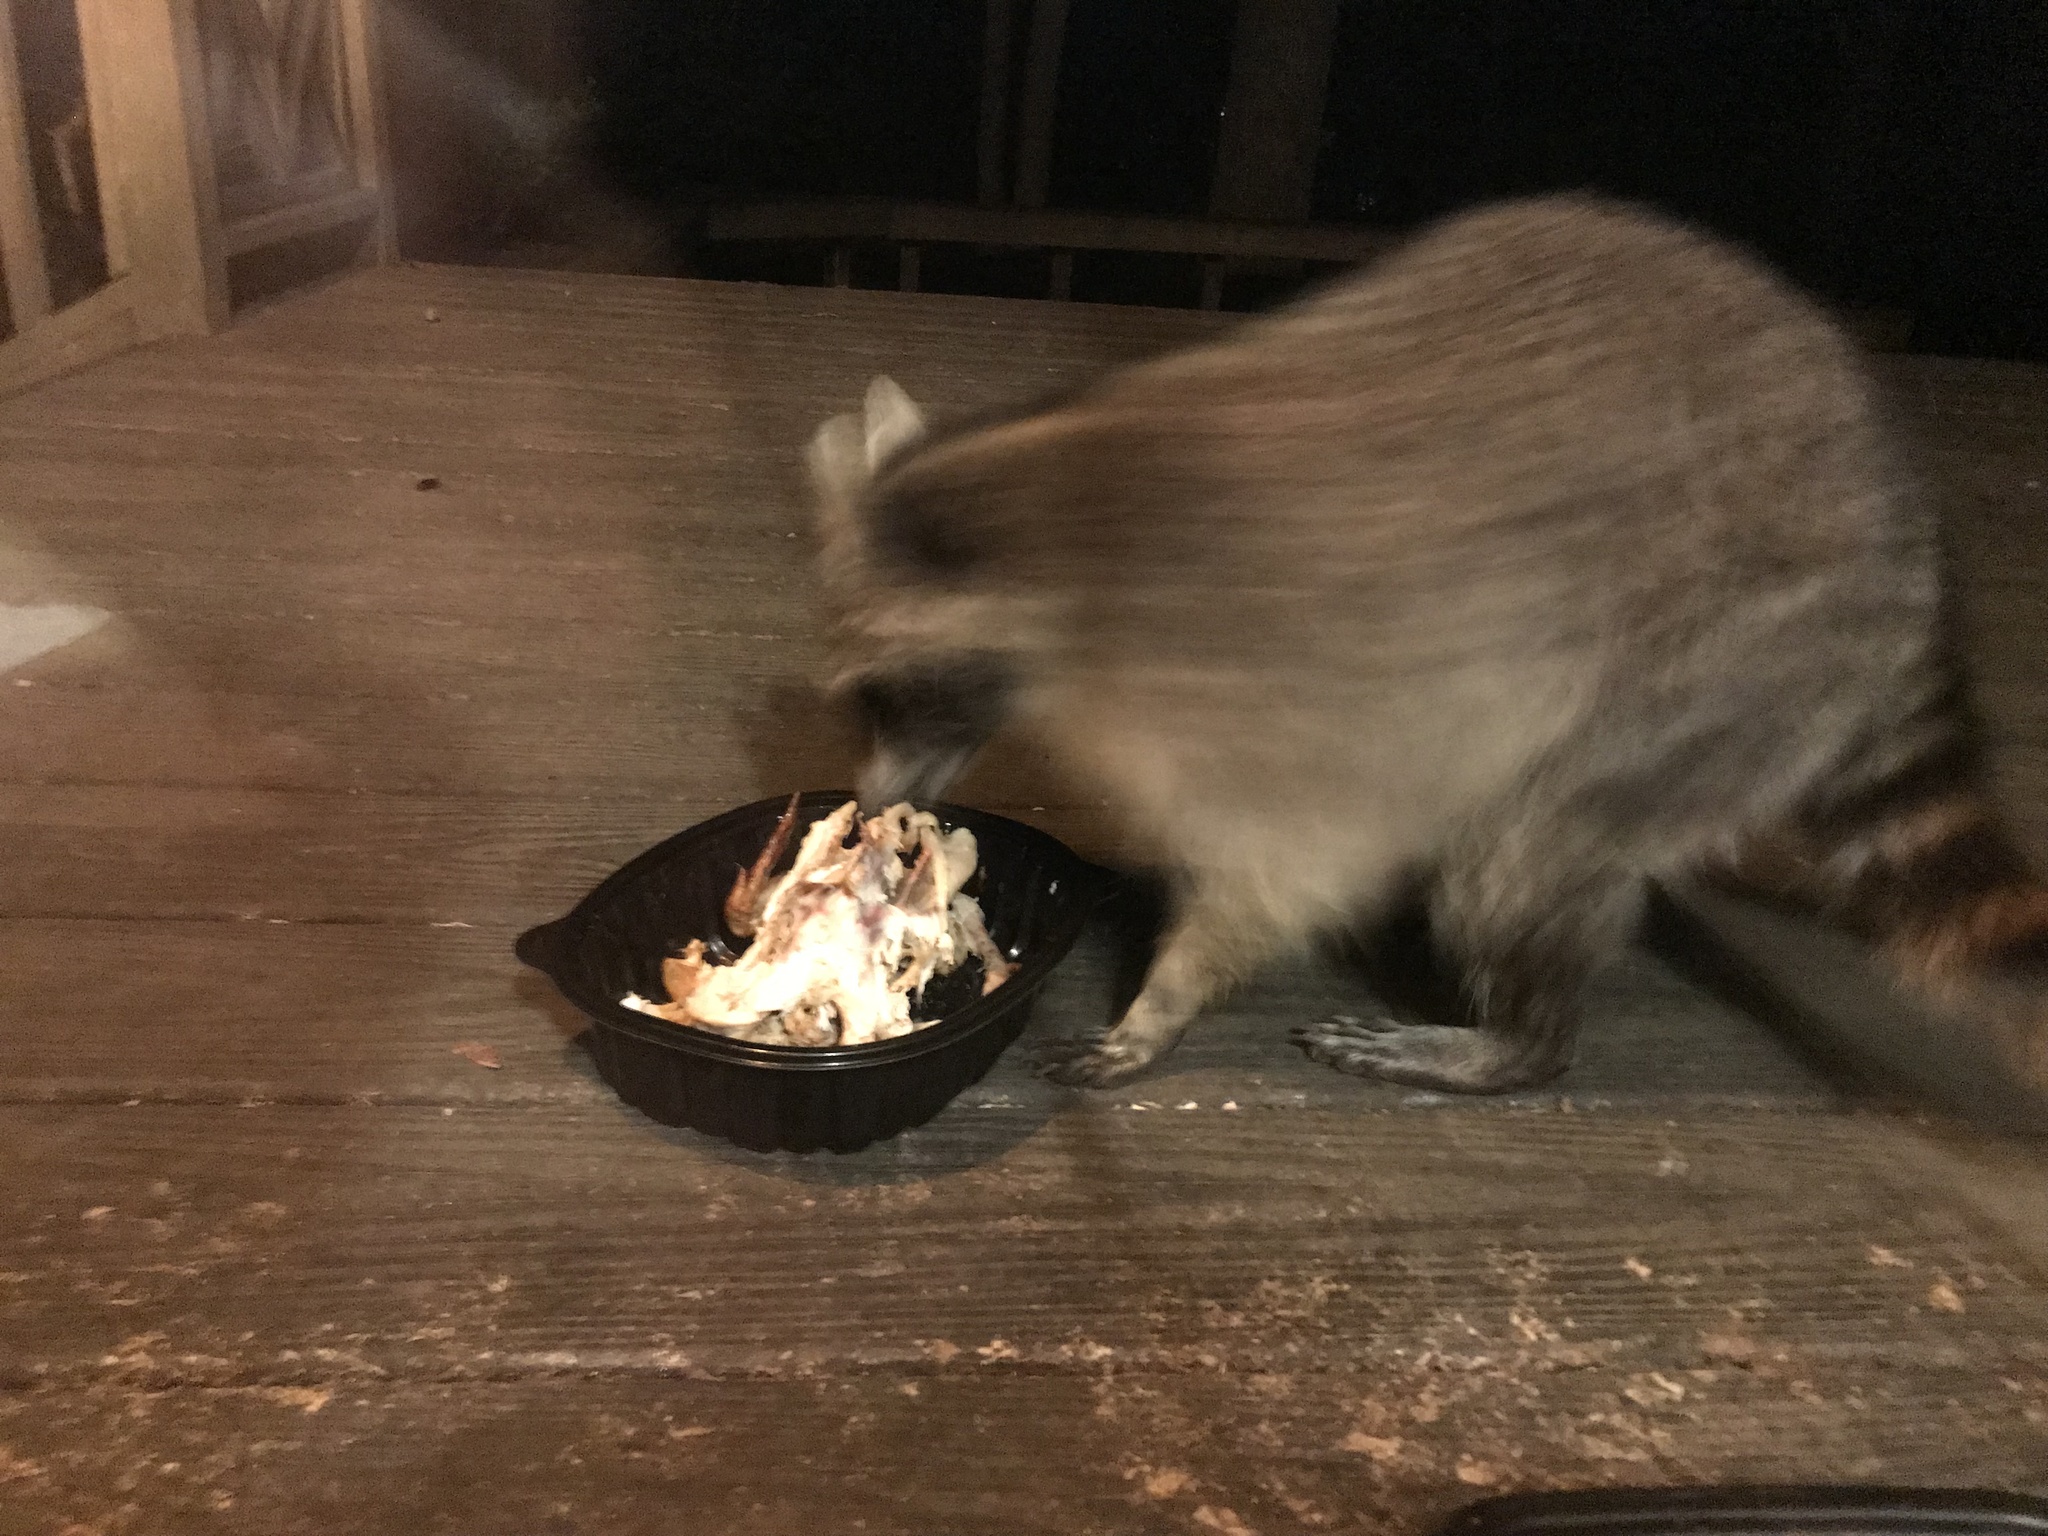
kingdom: Animalia
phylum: Chordata
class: Mammalia
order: Carnivora
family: Procyonidae
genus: Procyon
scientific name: Procyon lotor
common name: Raccoon
